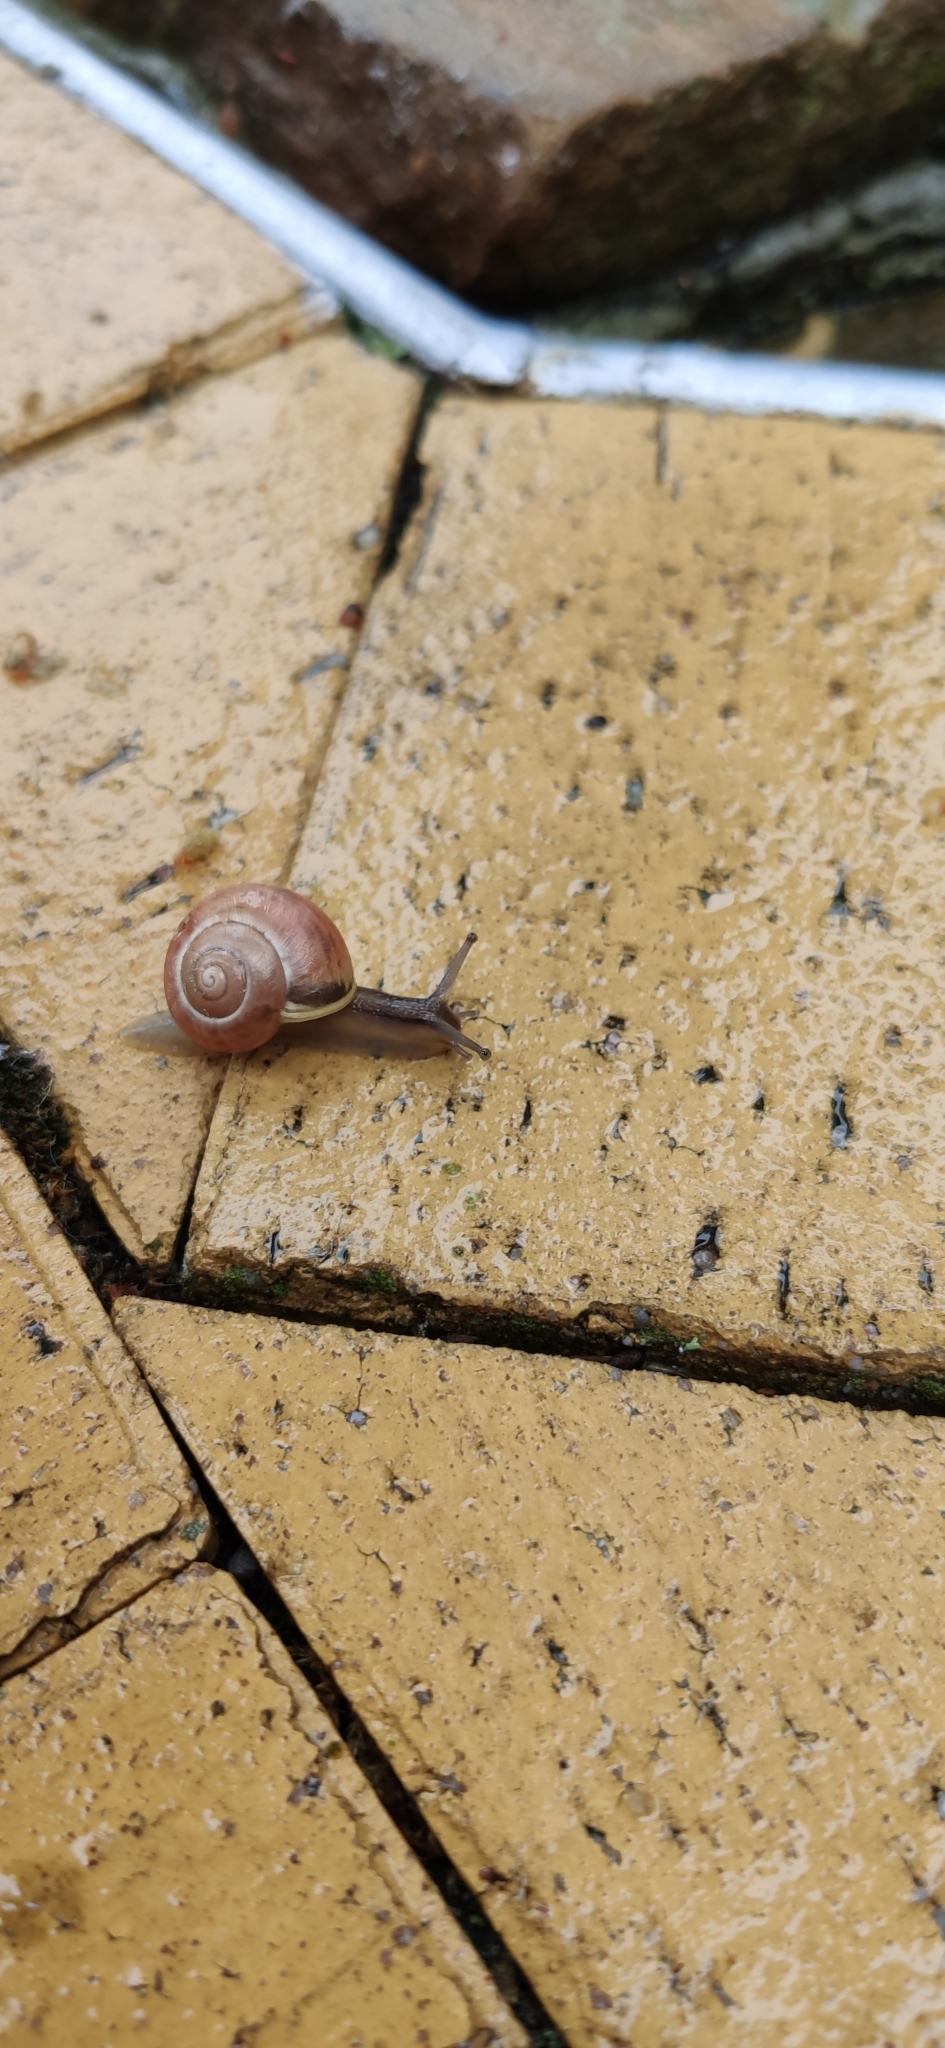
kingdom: Animalia
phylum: Mollusca
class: Gastropoda
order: Stylommatophora
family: Helicidae
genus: Cepaea
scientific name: Cepaea
